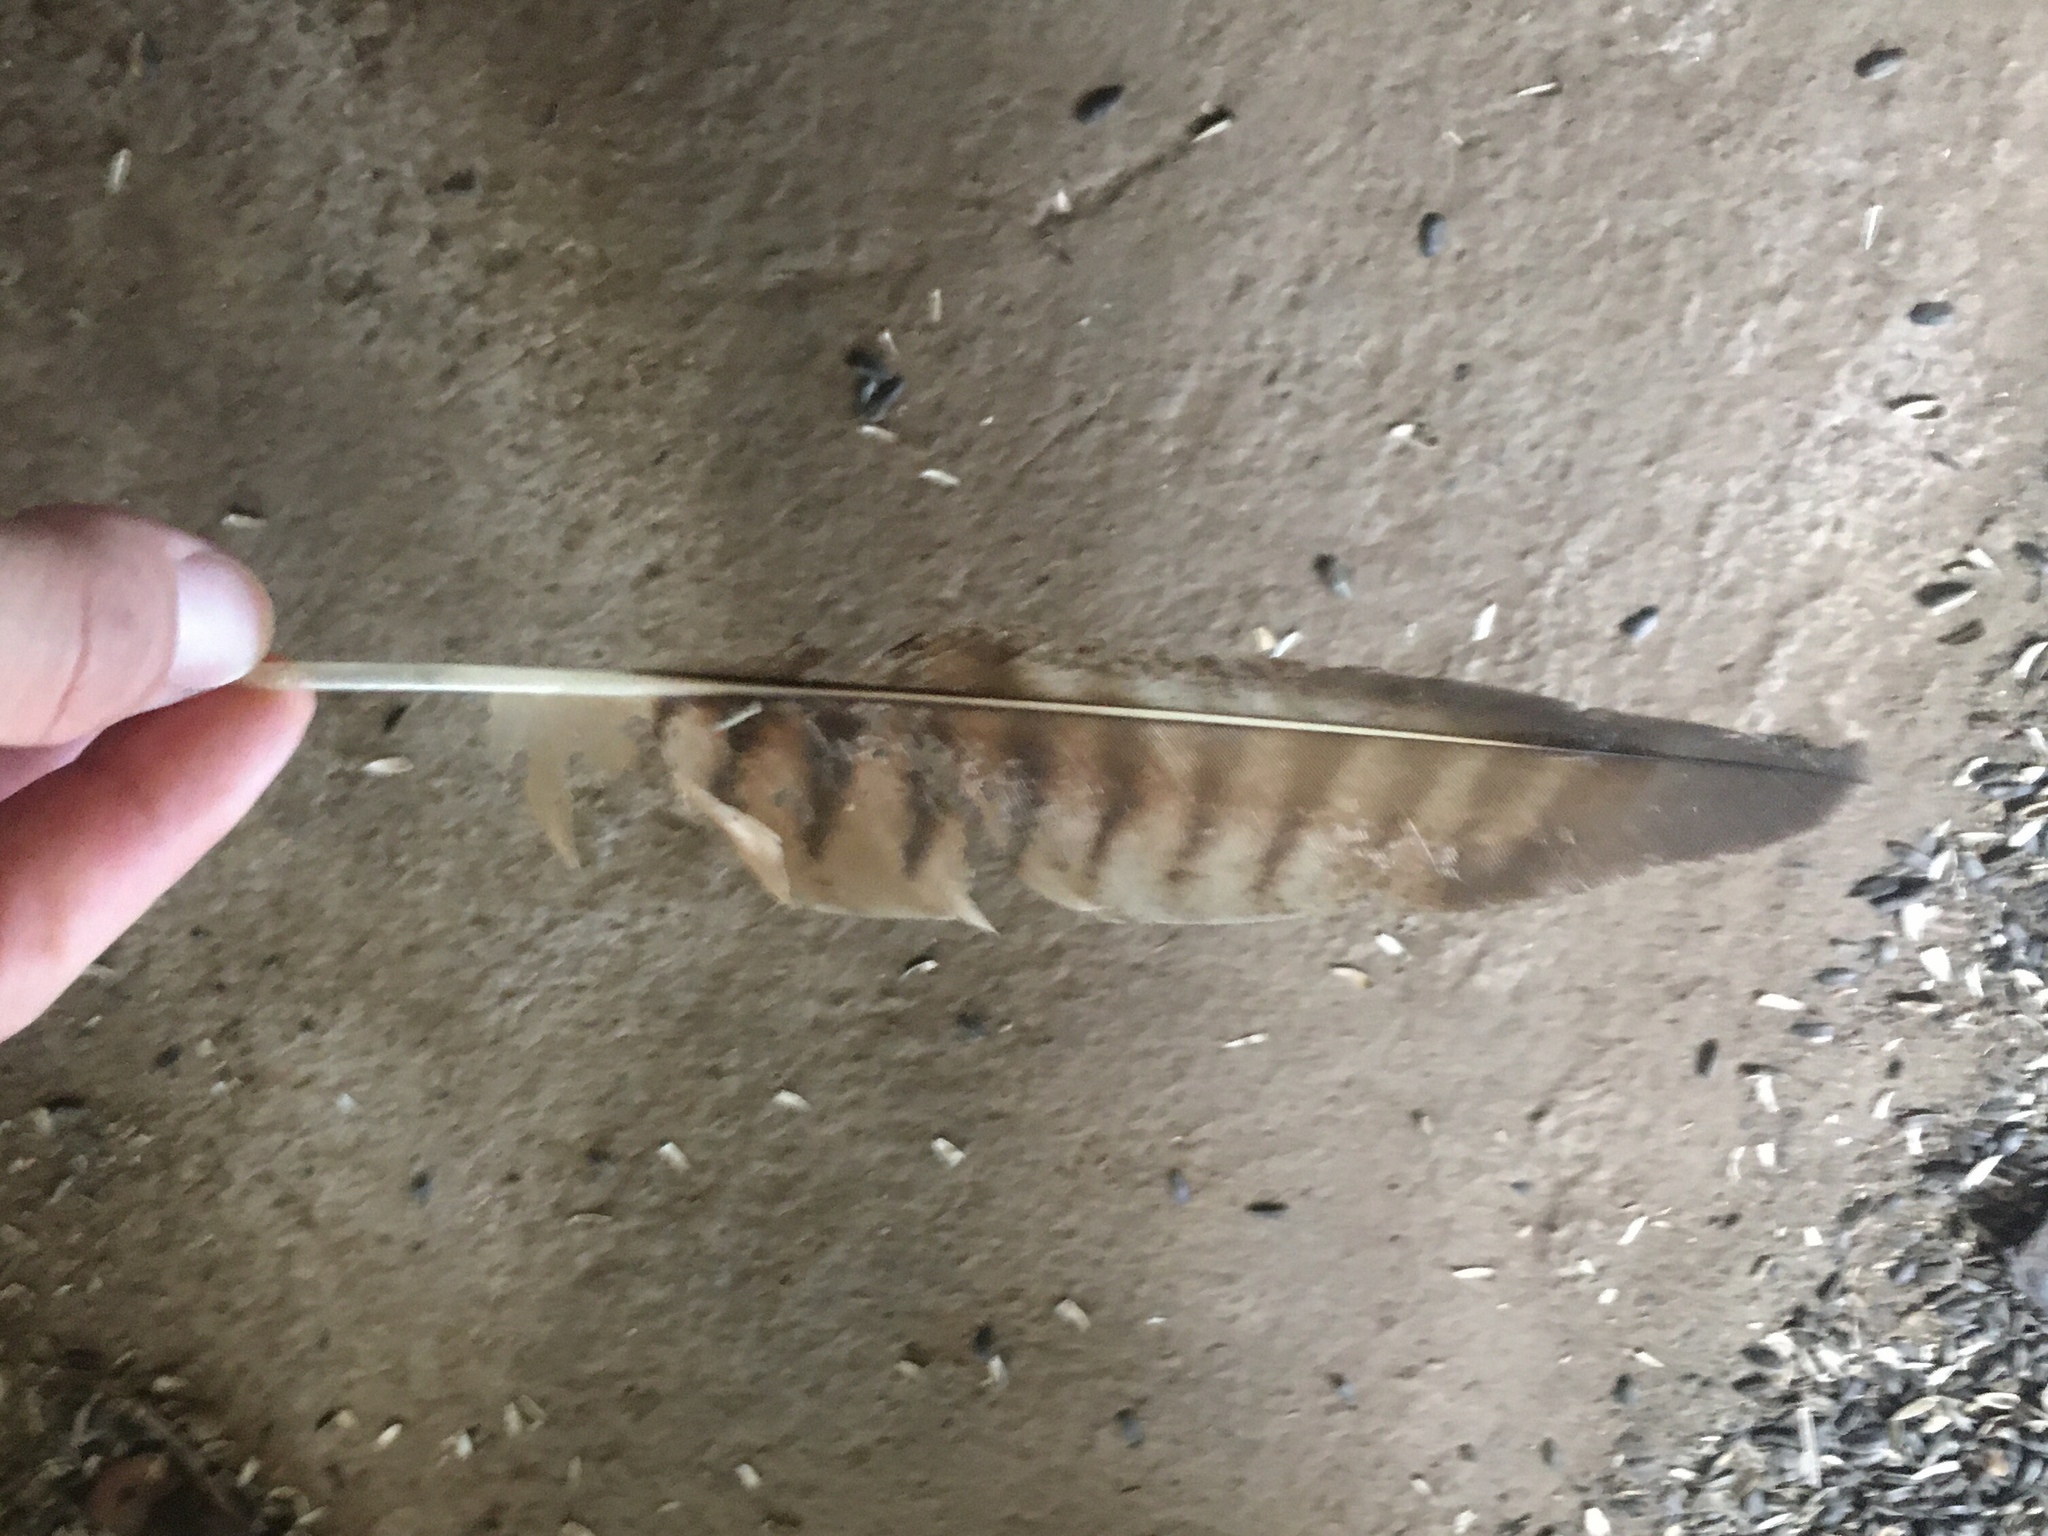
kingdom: Animalia
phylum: Chordata
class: Aves
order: Falconiformes
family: Falconidae
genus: Daptrius
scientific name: Daptrius
